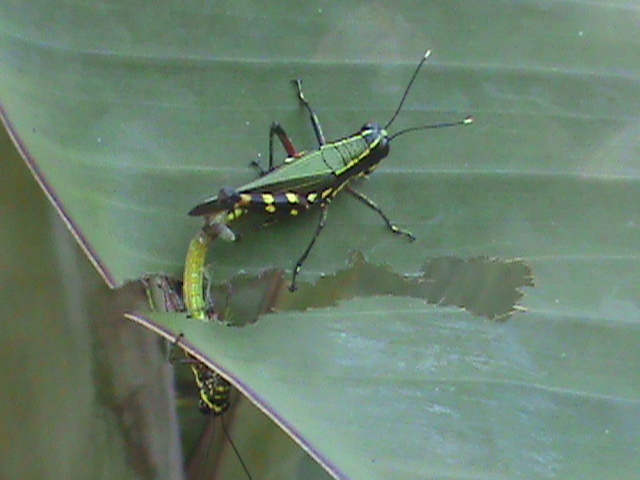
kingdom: Animalia
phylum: Arthropoda
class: Insecta
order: Orthoptera
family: Acrididae
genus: Tetrataenia
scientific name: Tetrataenia surinama
